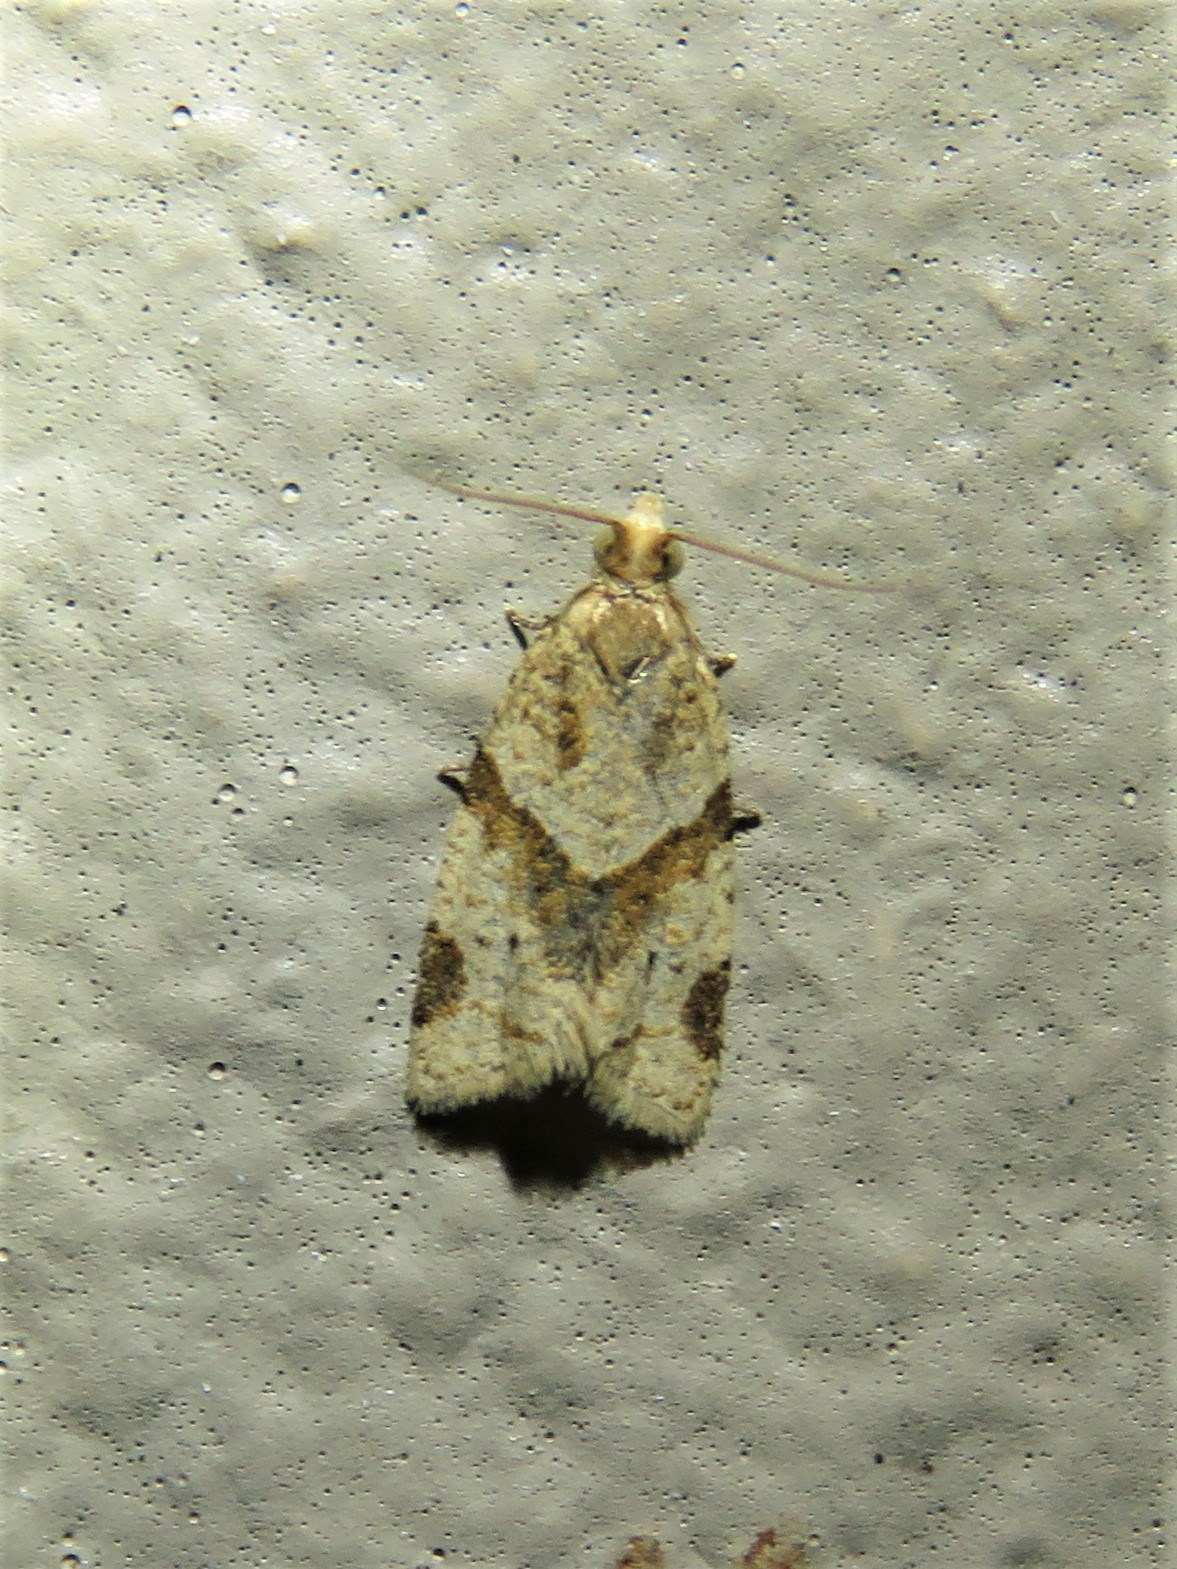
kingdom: Animalia
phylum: Arthropoda
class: Insecta
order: Lepidoptera
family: Tortricidae
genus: Clepsis
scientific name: Clepsis peritana
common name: Garden tortrix
